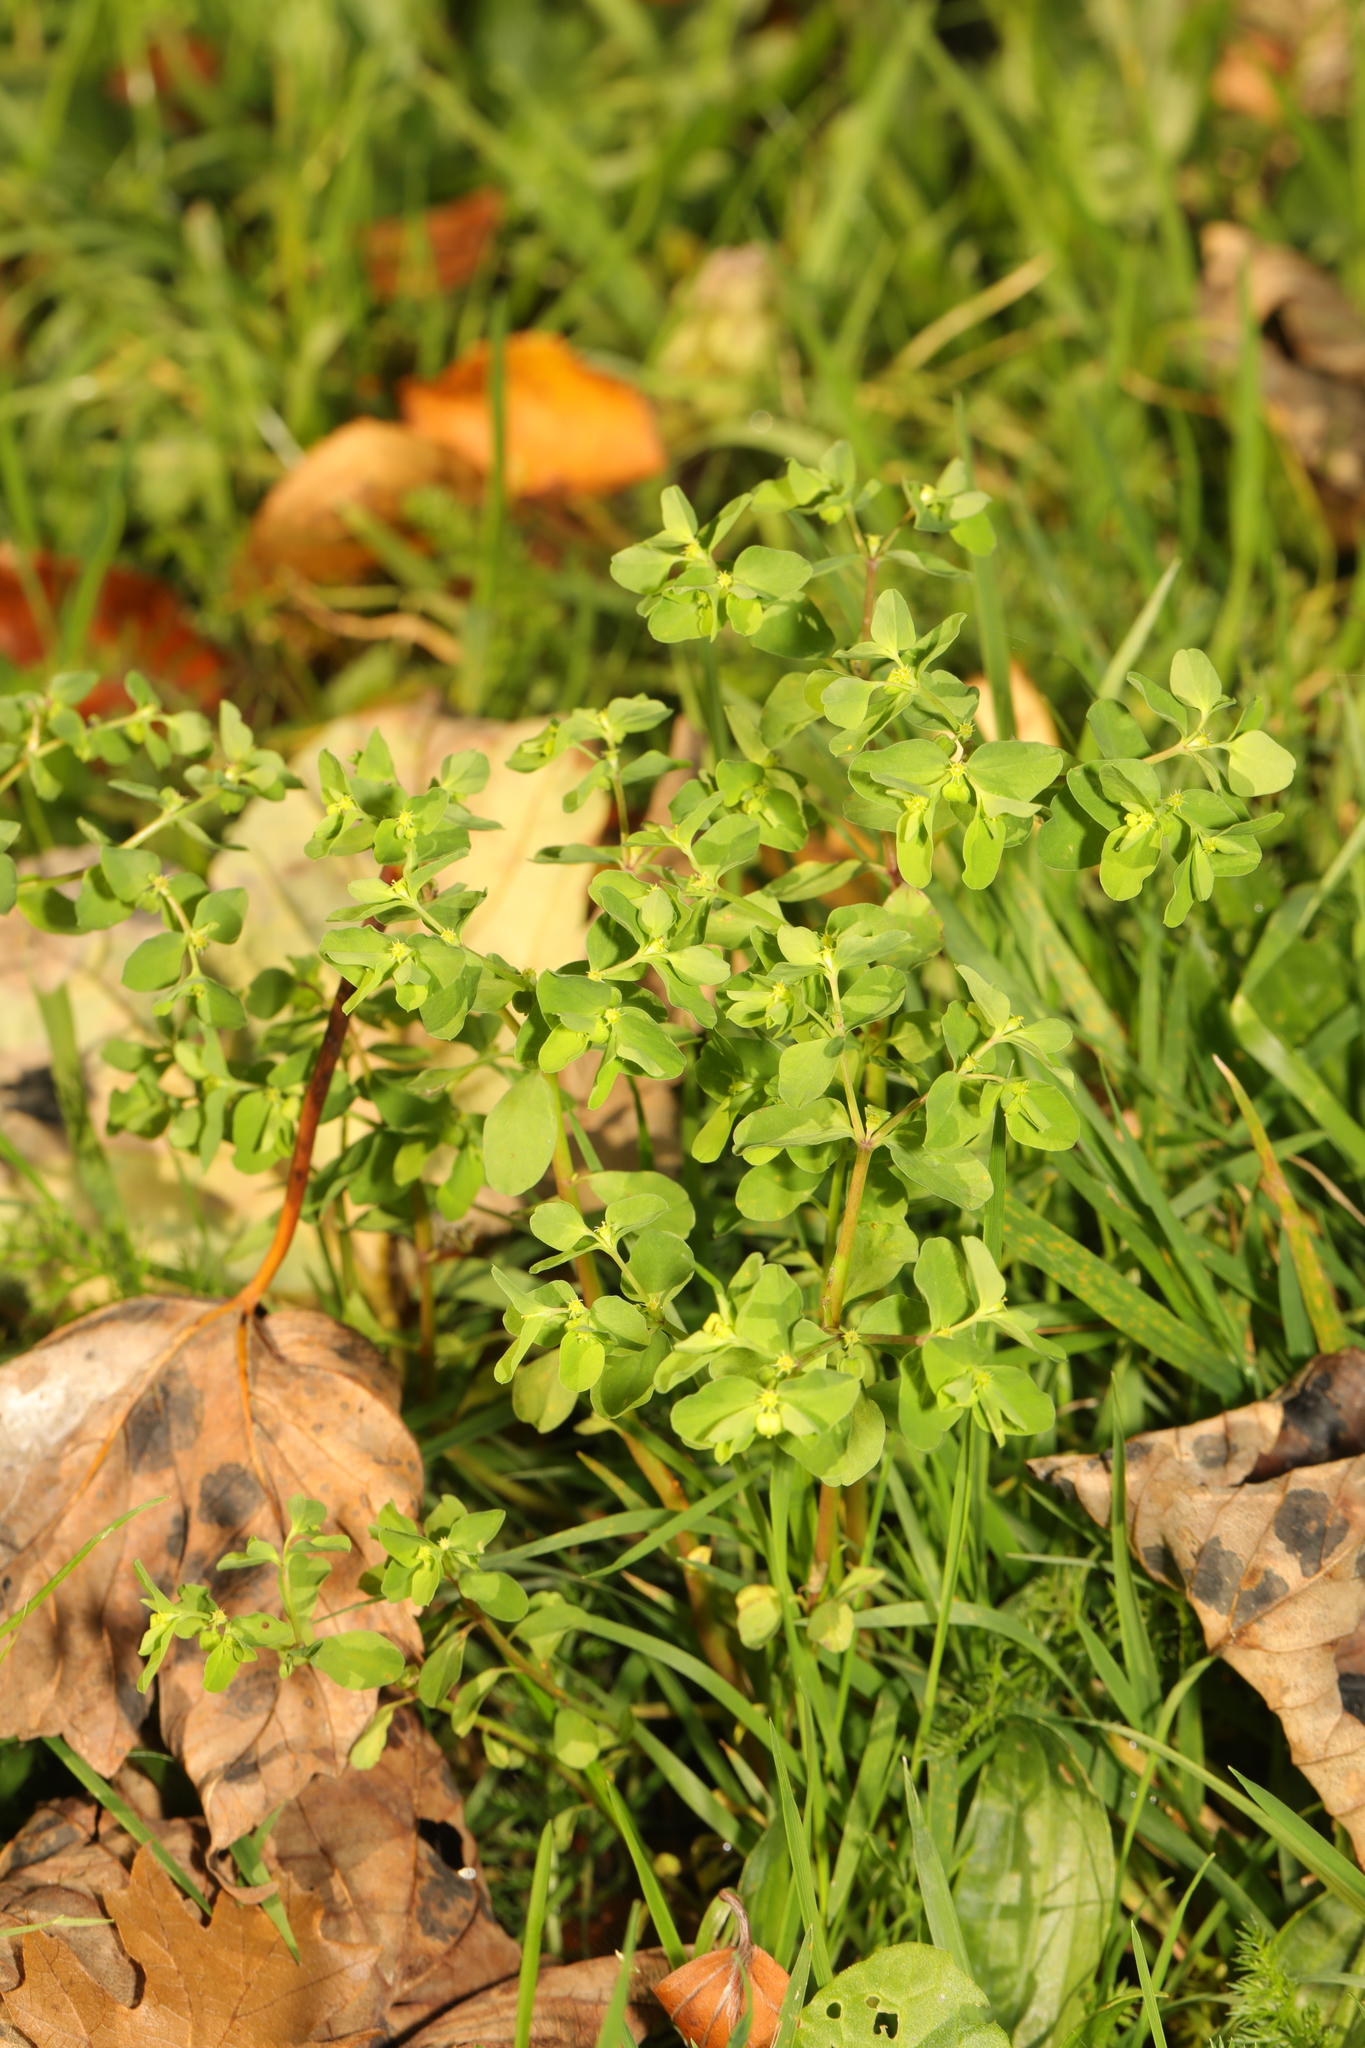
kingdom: Plantae
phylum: Tracheophyta
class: Magnoliopsida
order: Malpighiales
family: Euphorbiaceae
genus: Euphorbia
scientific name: Euphorbia peplus
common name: Petty spurge
